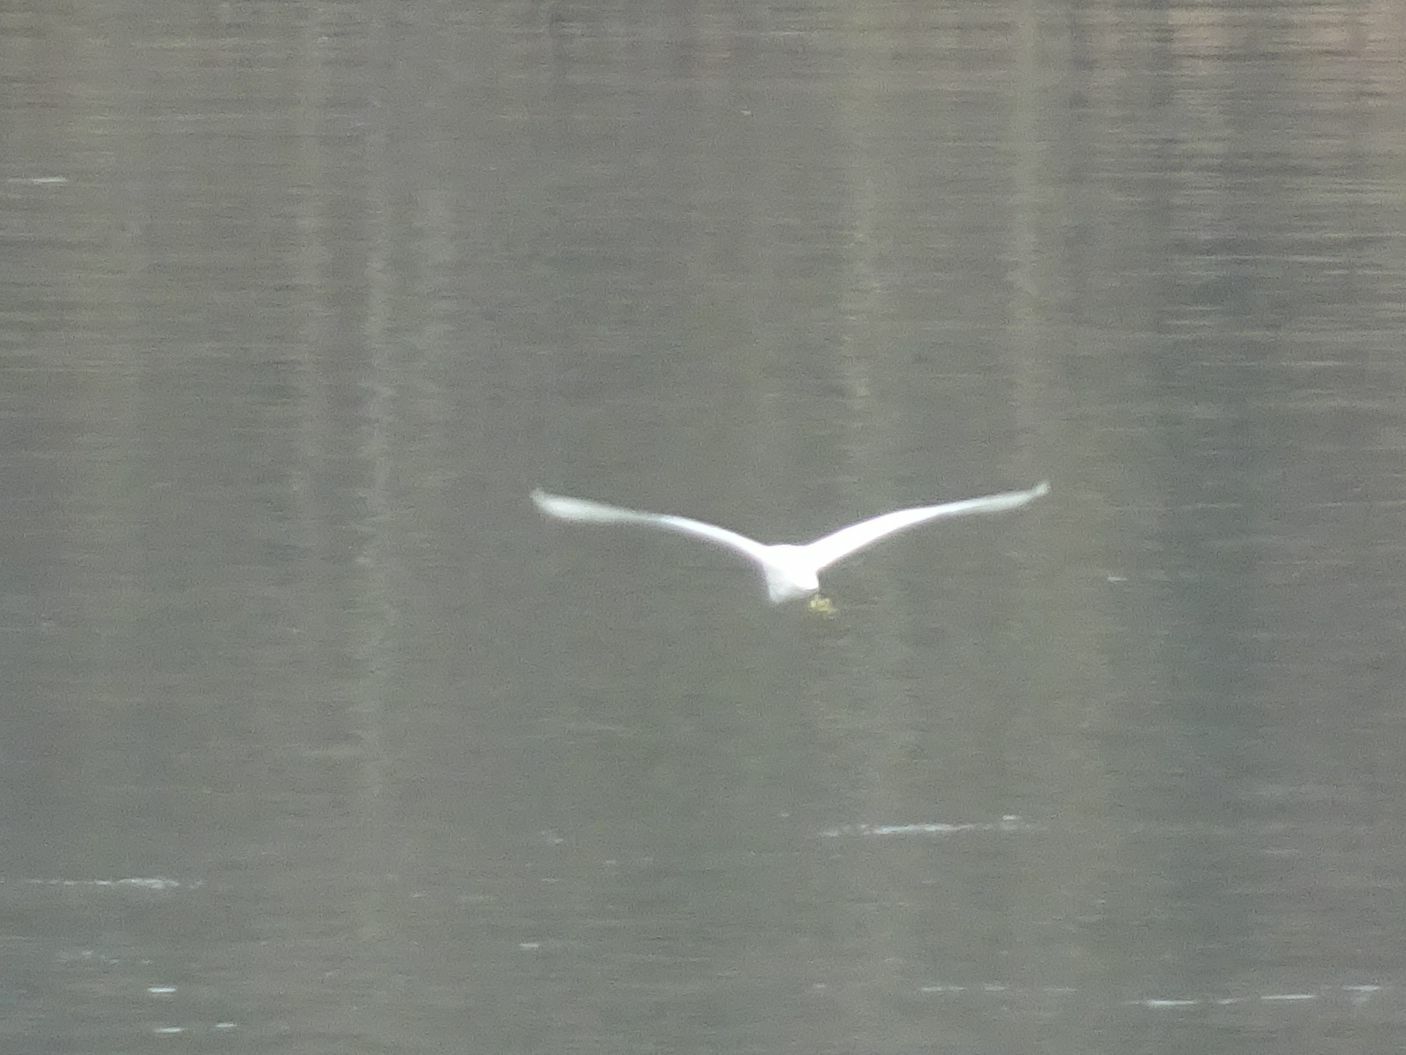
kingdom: Animalia
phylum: Chordata
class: Aves
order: Pelecaniformes
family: Ardeidae
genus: Egretta
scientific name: Egretta garzetta
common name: Little egret
